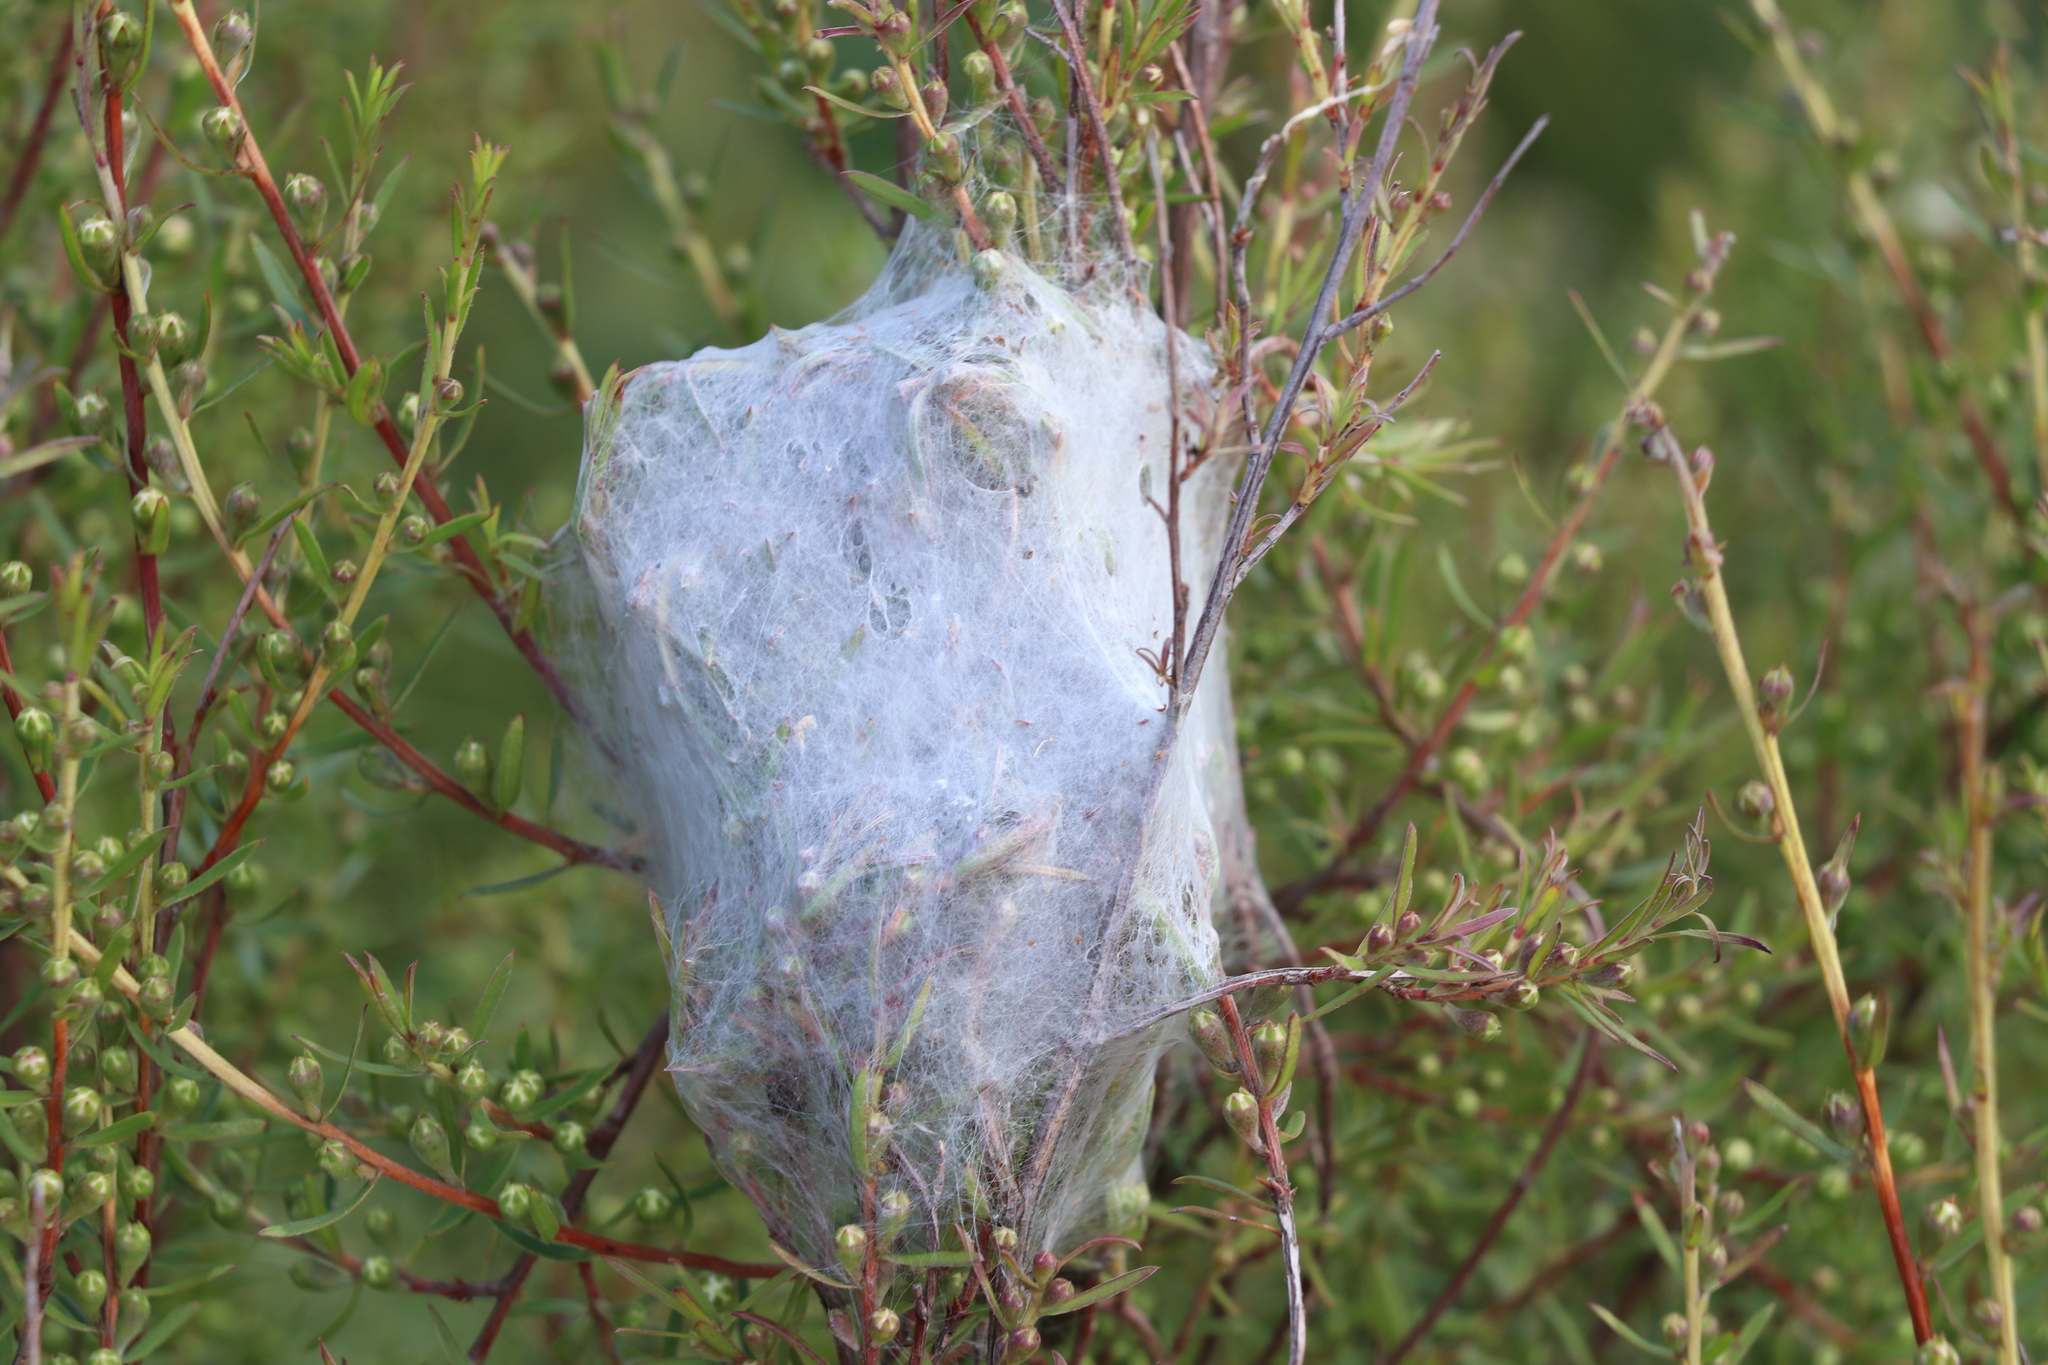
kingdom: Animalia
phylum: Arthropoda
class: Arachnida
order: Araneae
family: Pisauridae
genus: Dolomedes
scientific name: Dolomedes minor
